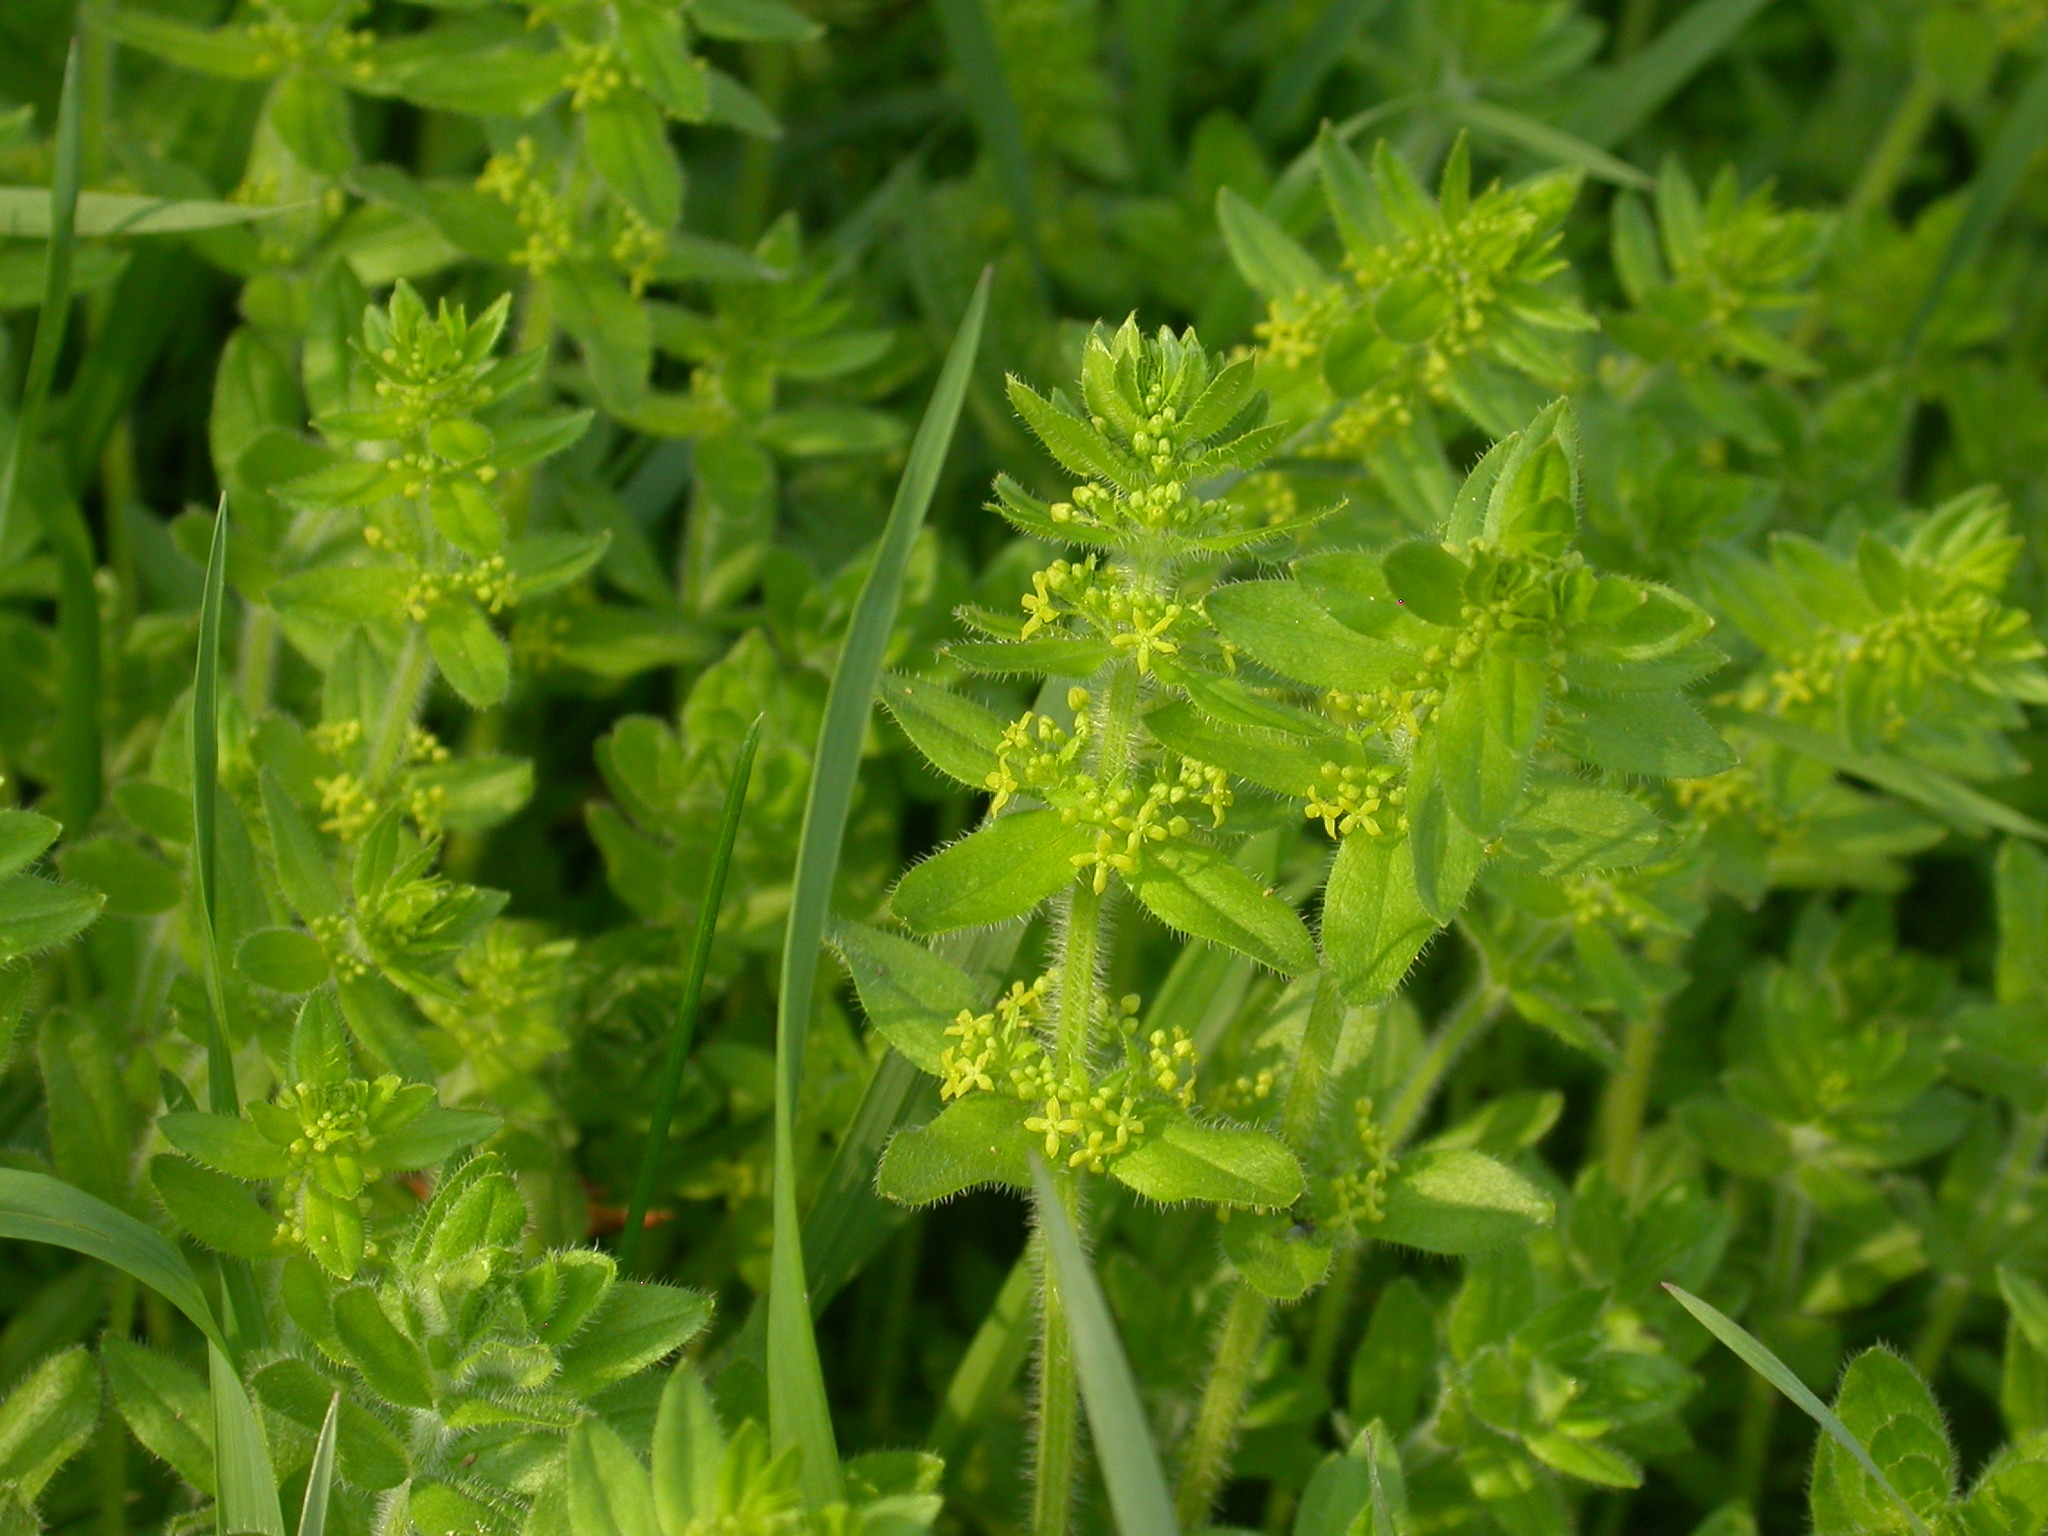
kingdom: Plantae
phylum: Tracheophyta
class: Magnoliopsida
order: Gentianales
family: Rubiaceae
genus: Cruciata
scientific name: Cruciata laevipes
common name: Crosswort
